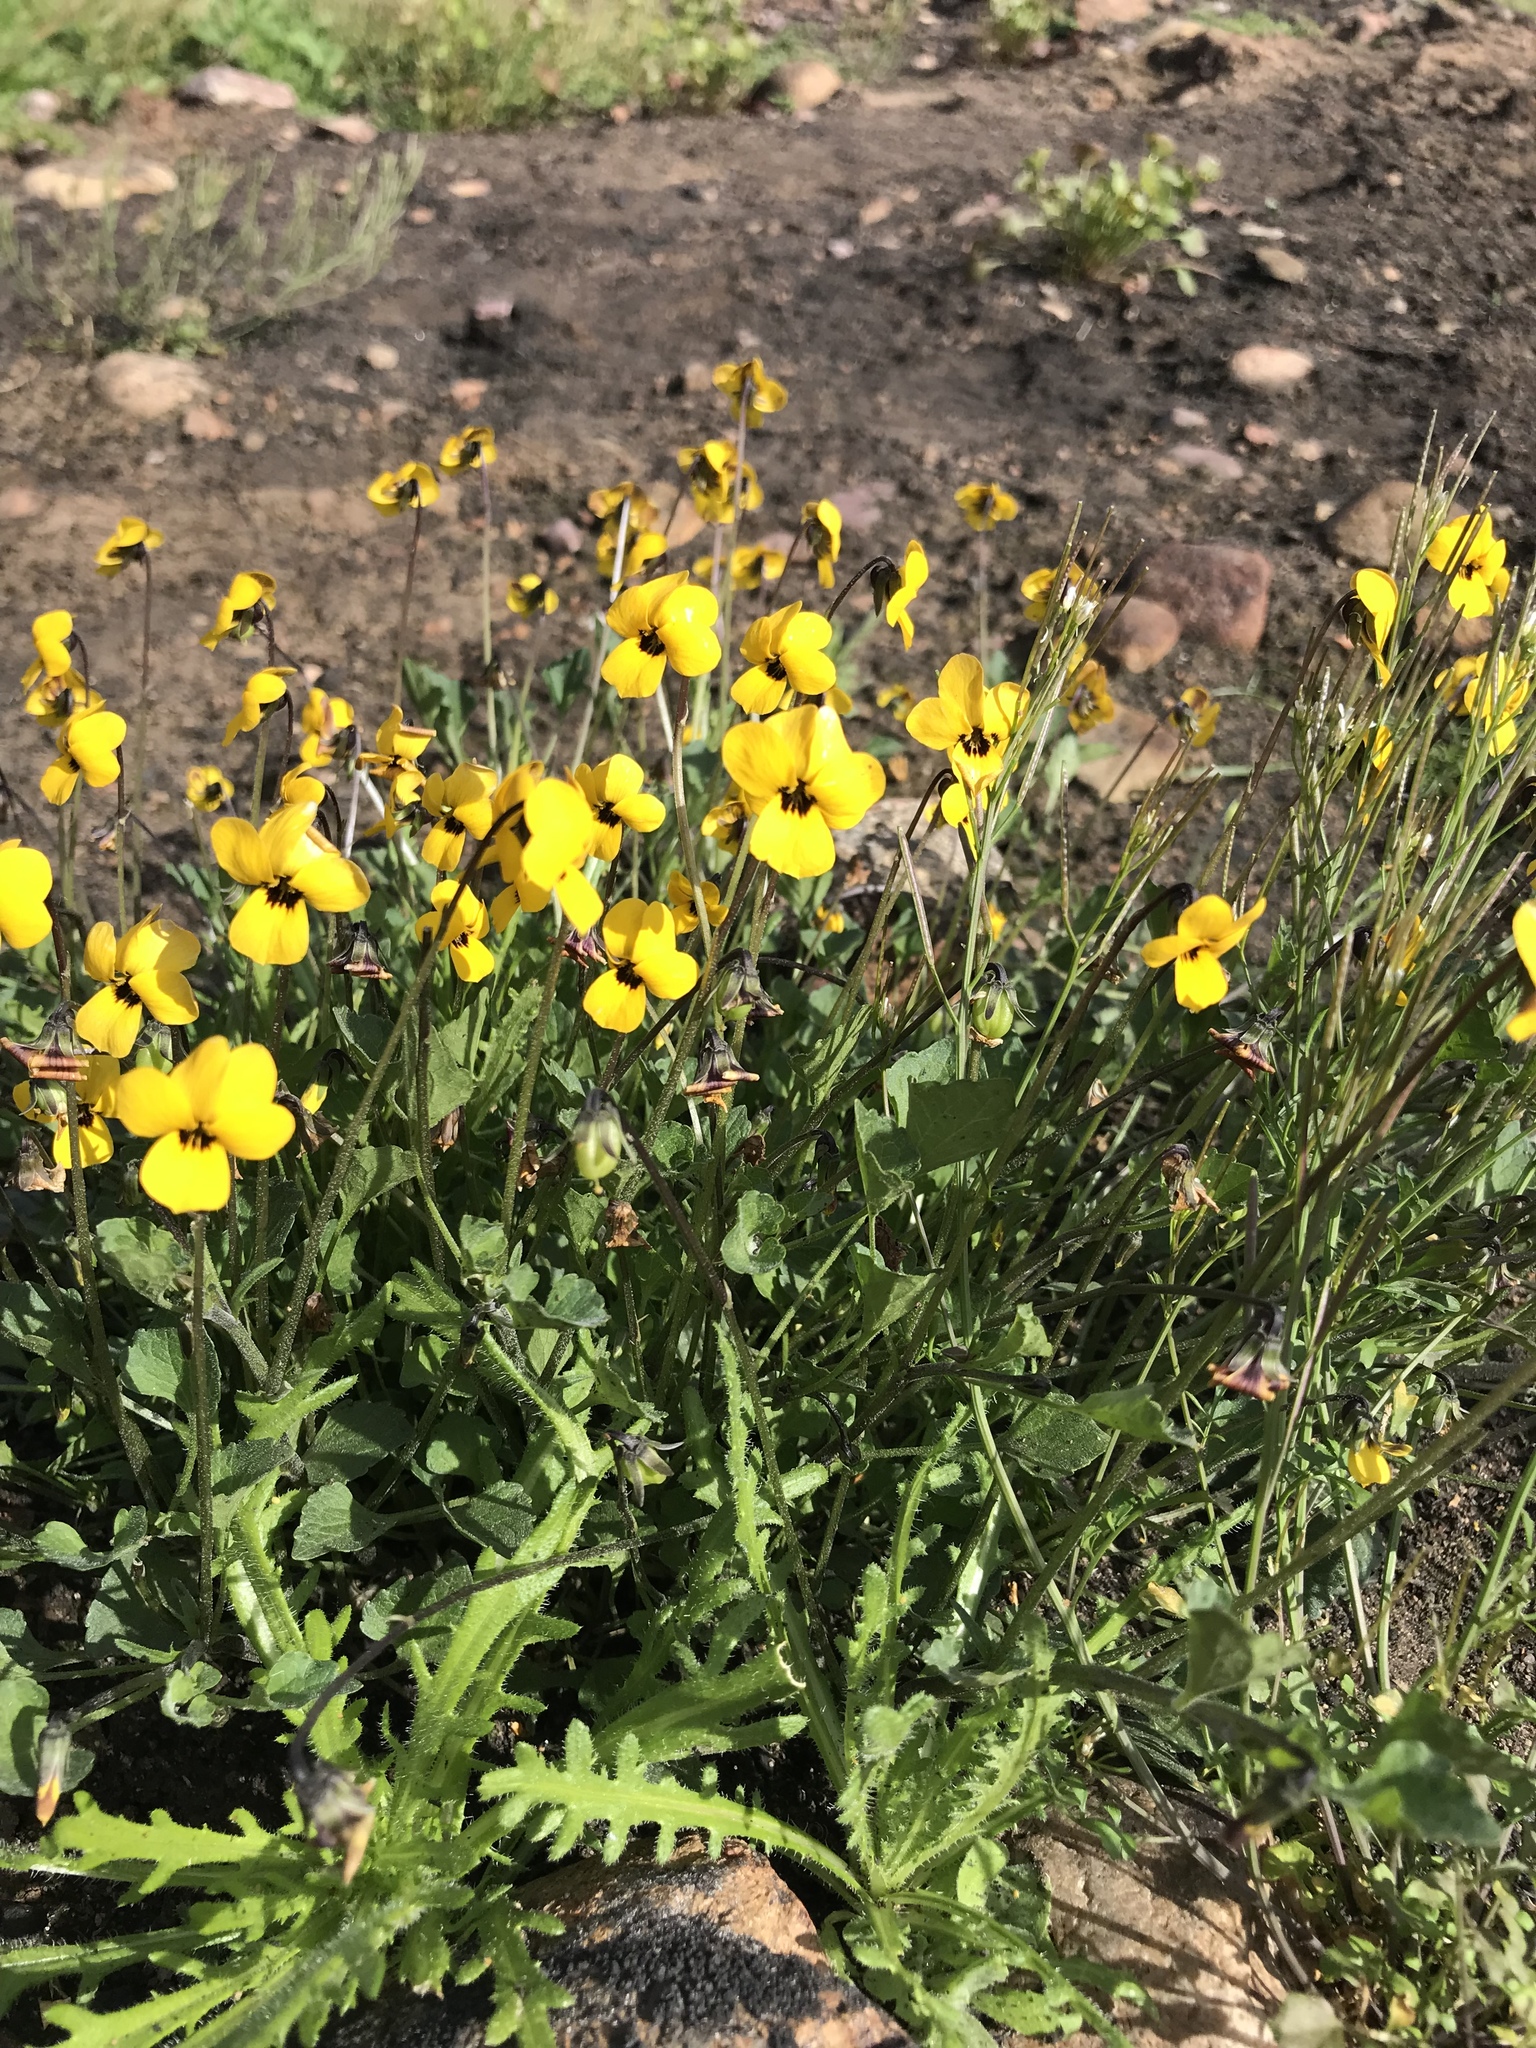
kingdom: Plantae
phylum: Tracheophyta
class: Magnoliopsida
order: Malpighiales
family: Violaceae
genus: Viola
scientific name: Viola pedunculata
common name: California golden violet
